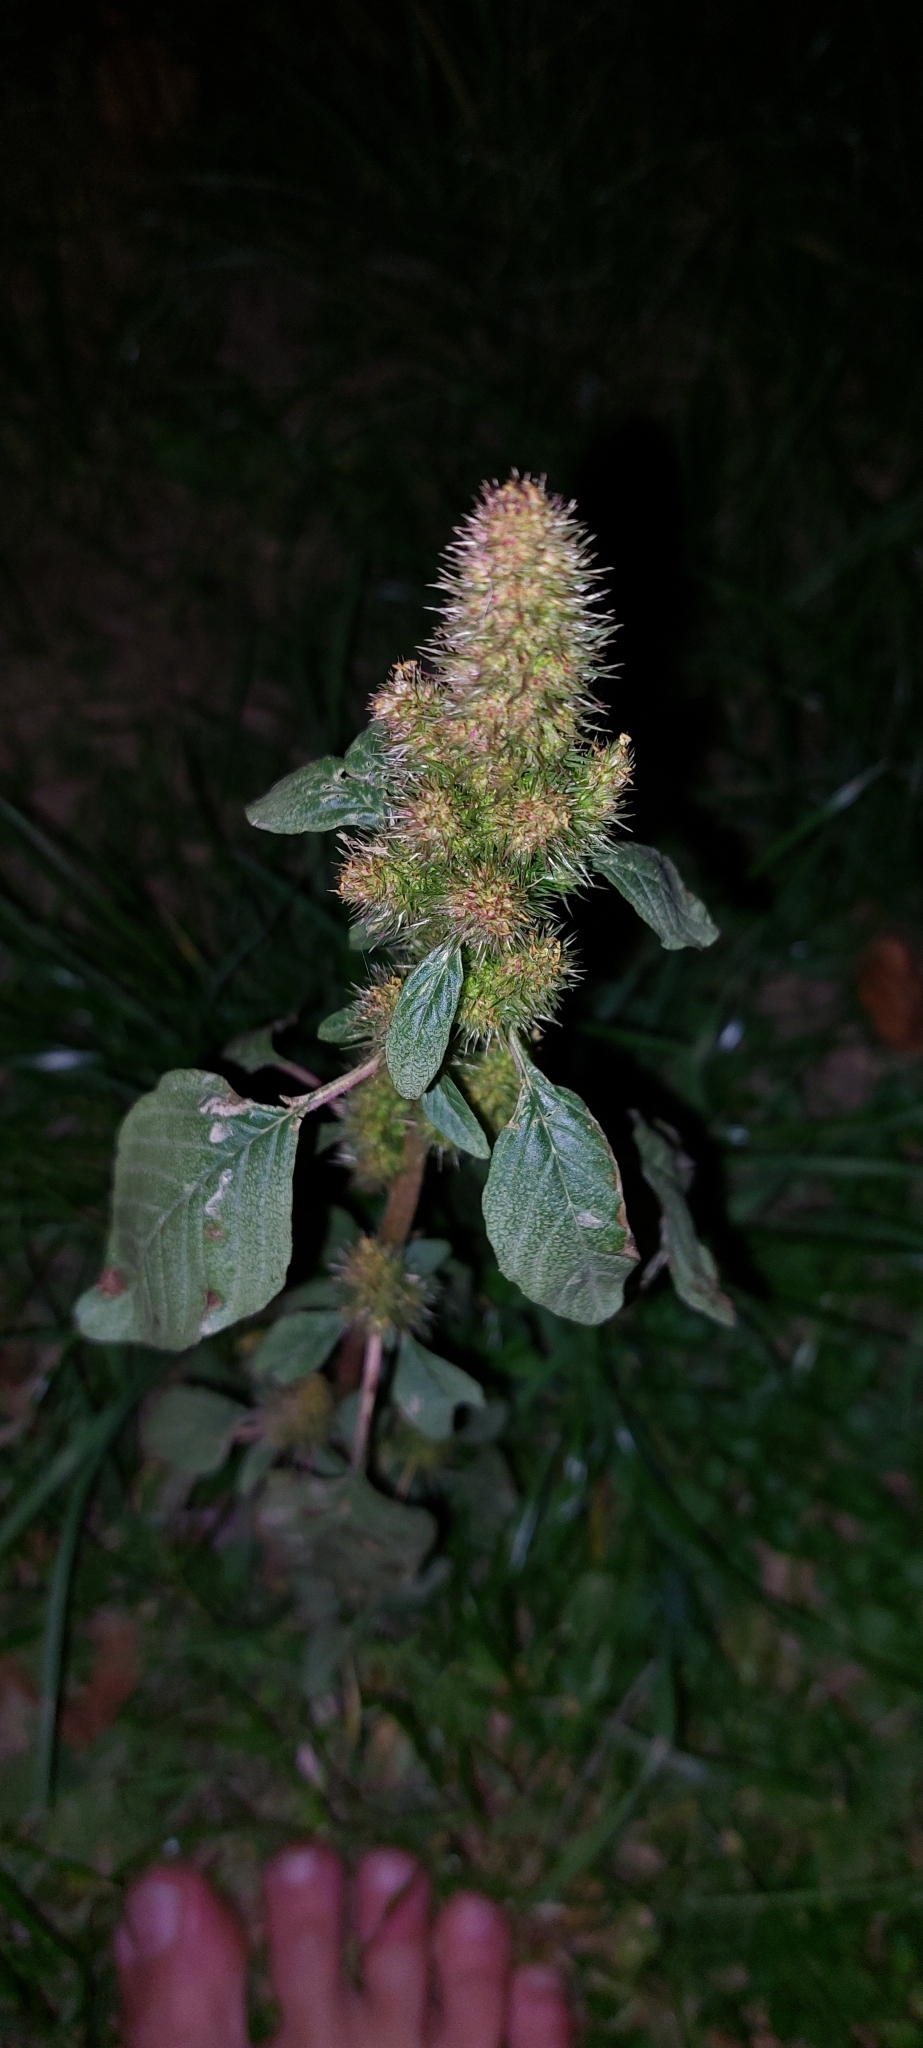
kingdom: Plantae
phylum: Tracheophyta
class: Magnoliopsida
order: Caryophyllales
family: Amaranthaceae
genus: Amaranthus
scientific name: Amaranthus retroflexus
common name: Redroot amaranth
